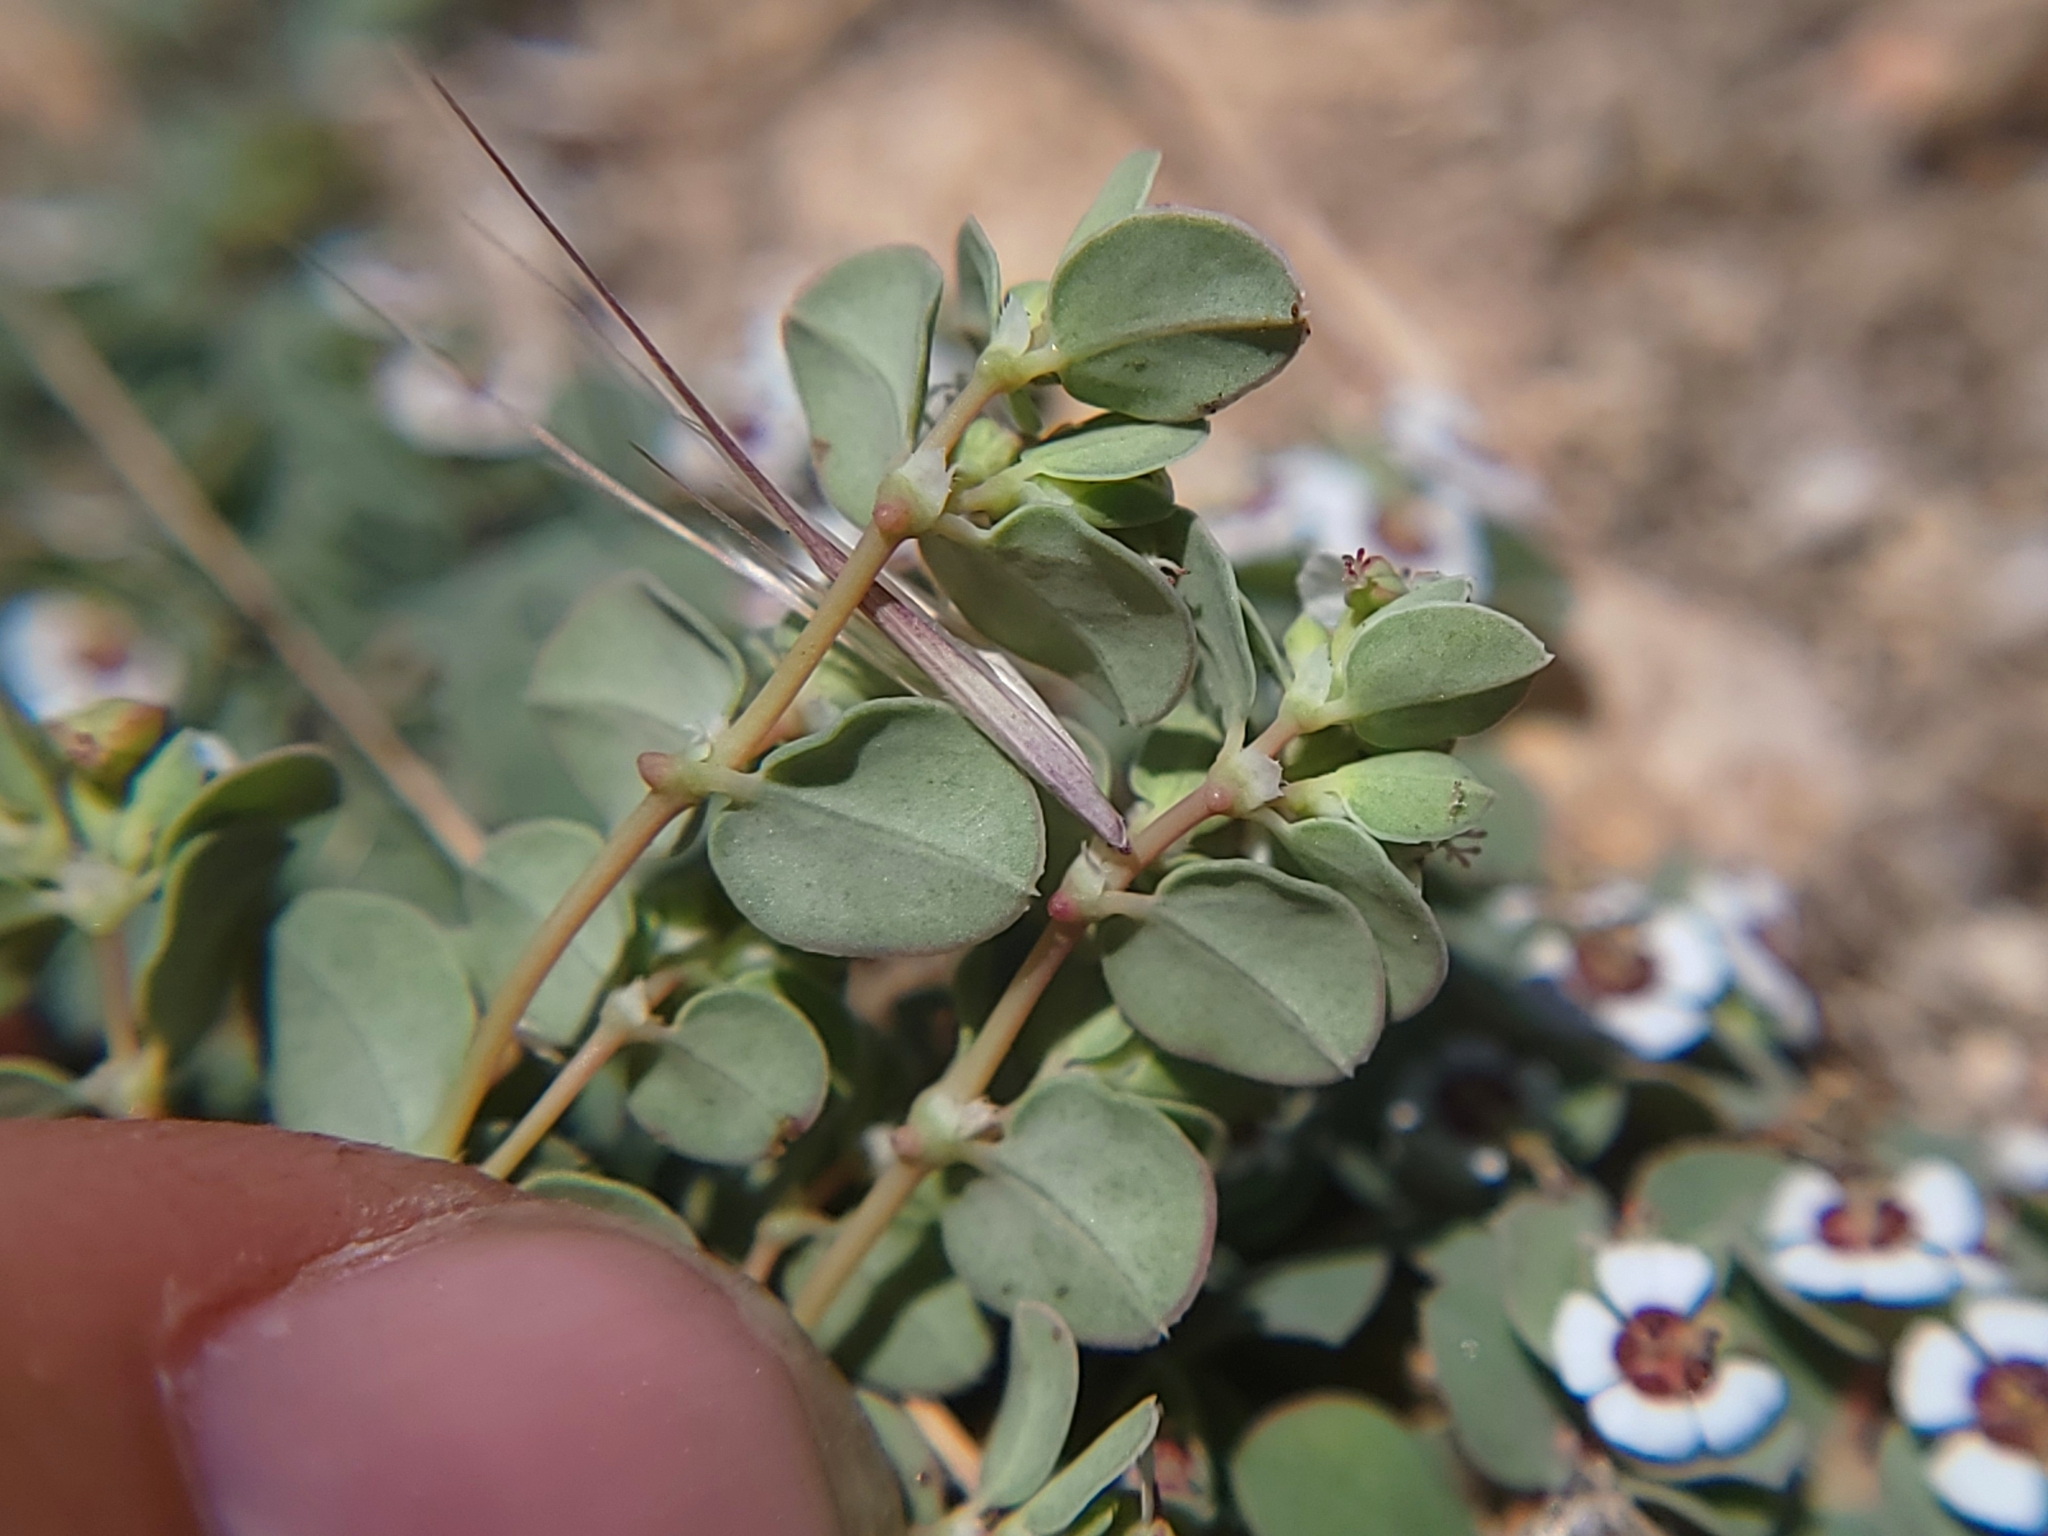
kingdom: Plantae
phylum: Tracheophyta
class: Magnoliopsida
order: Malpighiales
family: Euphorbiaceae
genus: Euphorbia
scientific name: Euphorbia albomarginata
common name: Whitemargin sandmat
